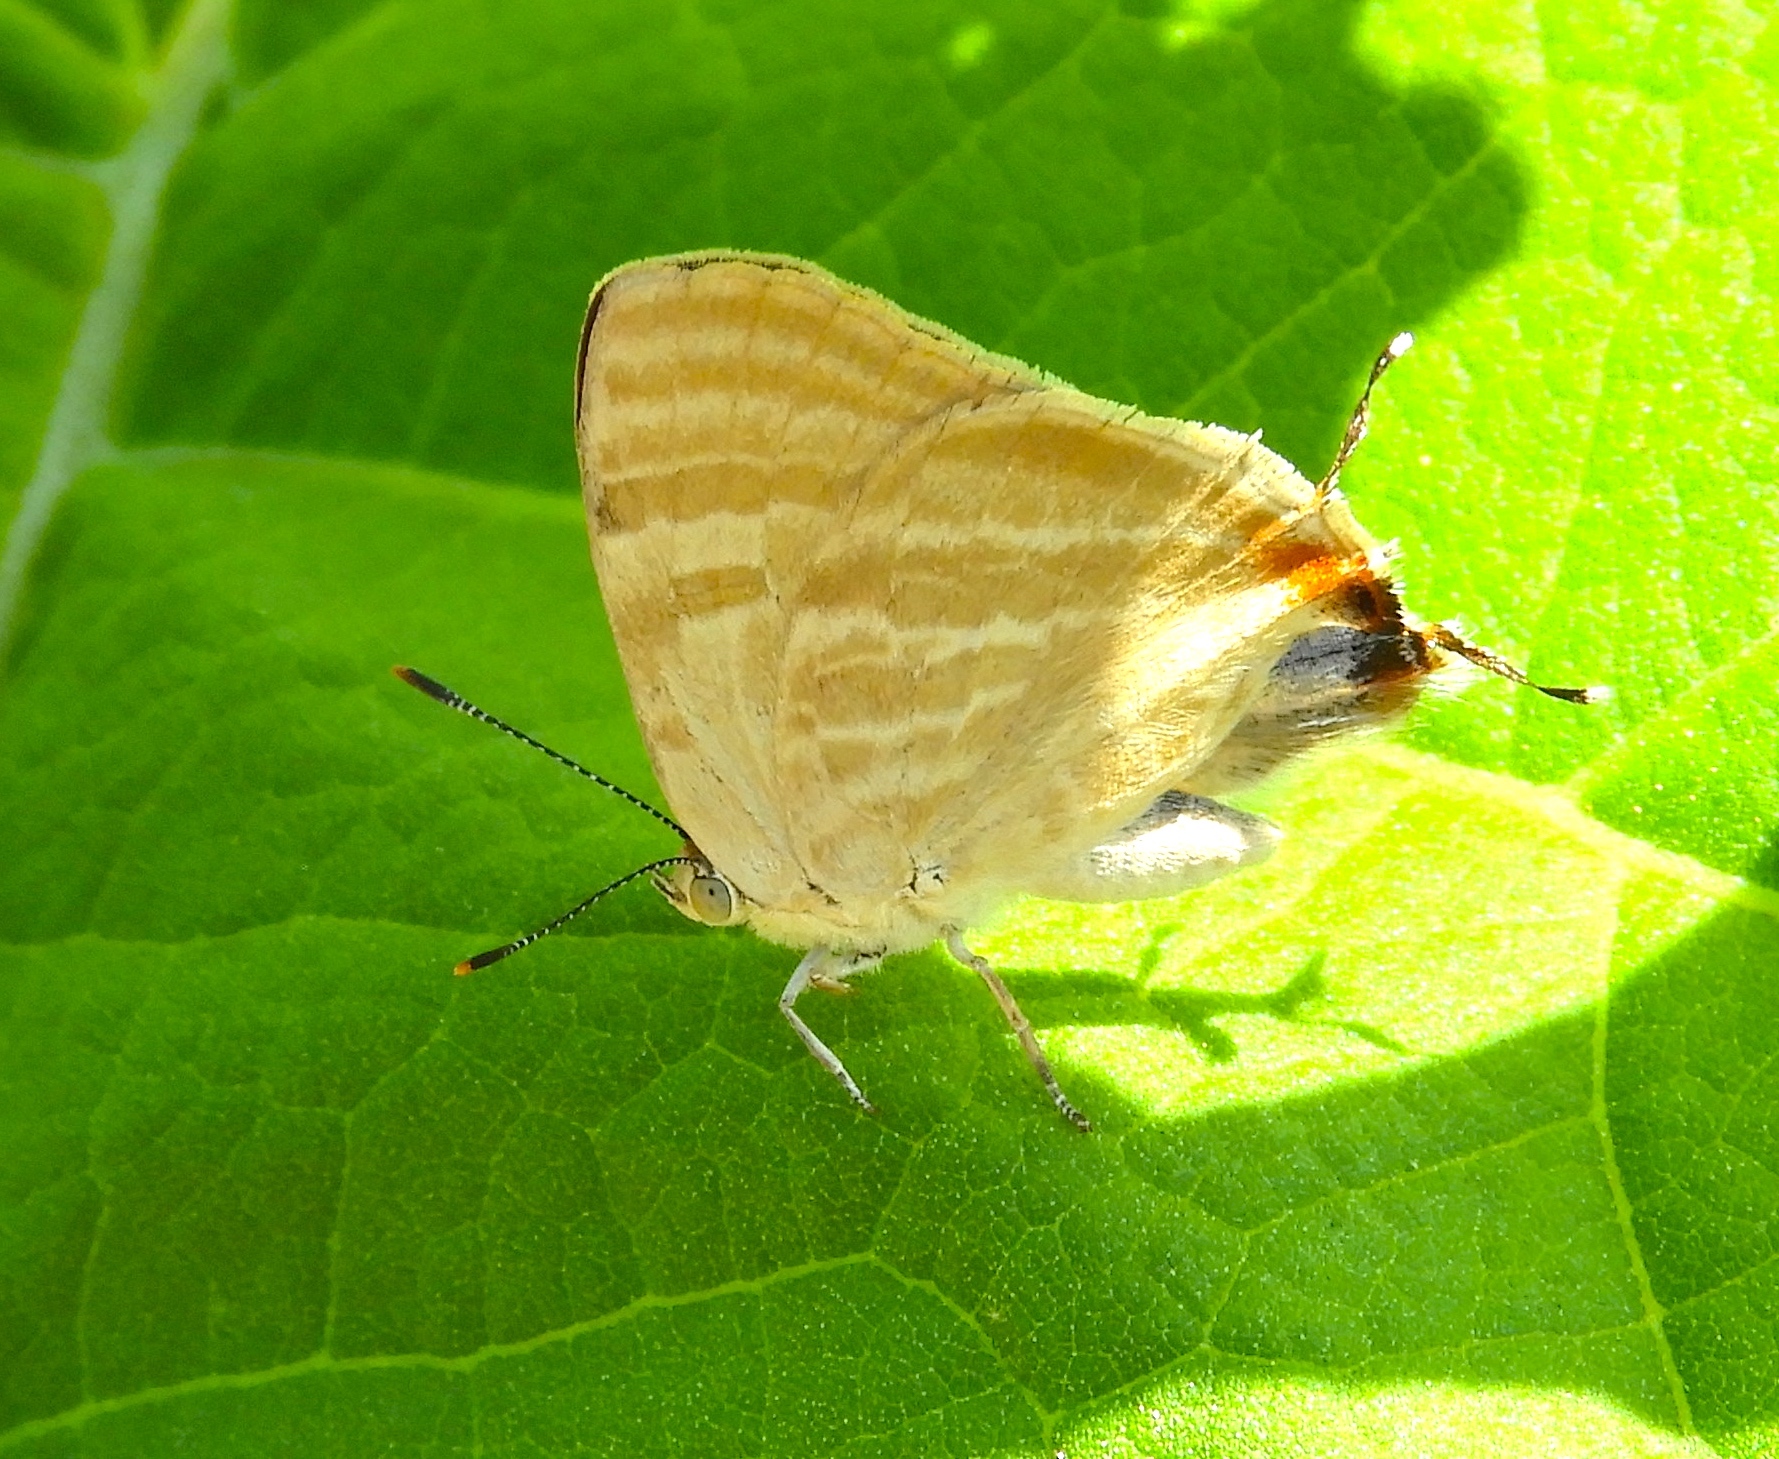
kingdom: Animalia
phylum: Arthropoda
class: Insecta
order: Lepidoptera
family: Lycaenidae
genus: Dolymorpha
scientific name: Dolymorpha jada
